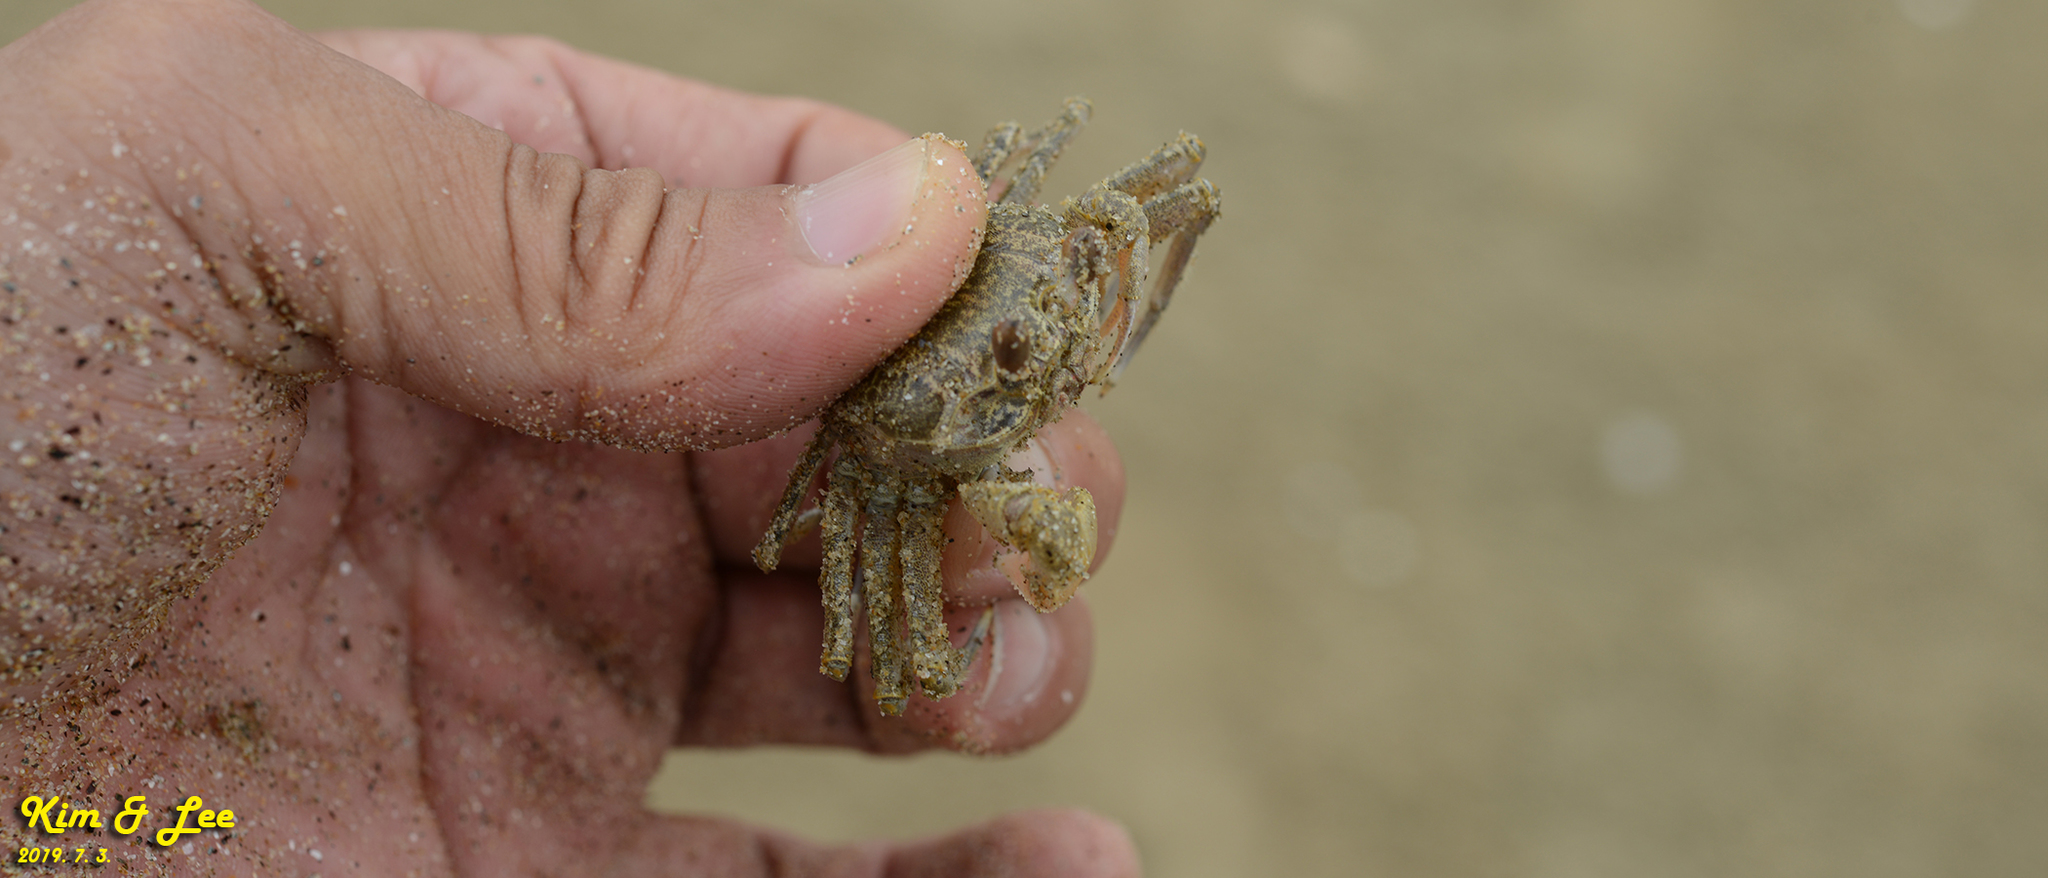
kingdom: Animalia
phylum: Arthropoda
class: Malacostraca
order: Decapoda
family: Ocypodidae
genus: Ocypode
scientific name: Ocypode stimpsoni
